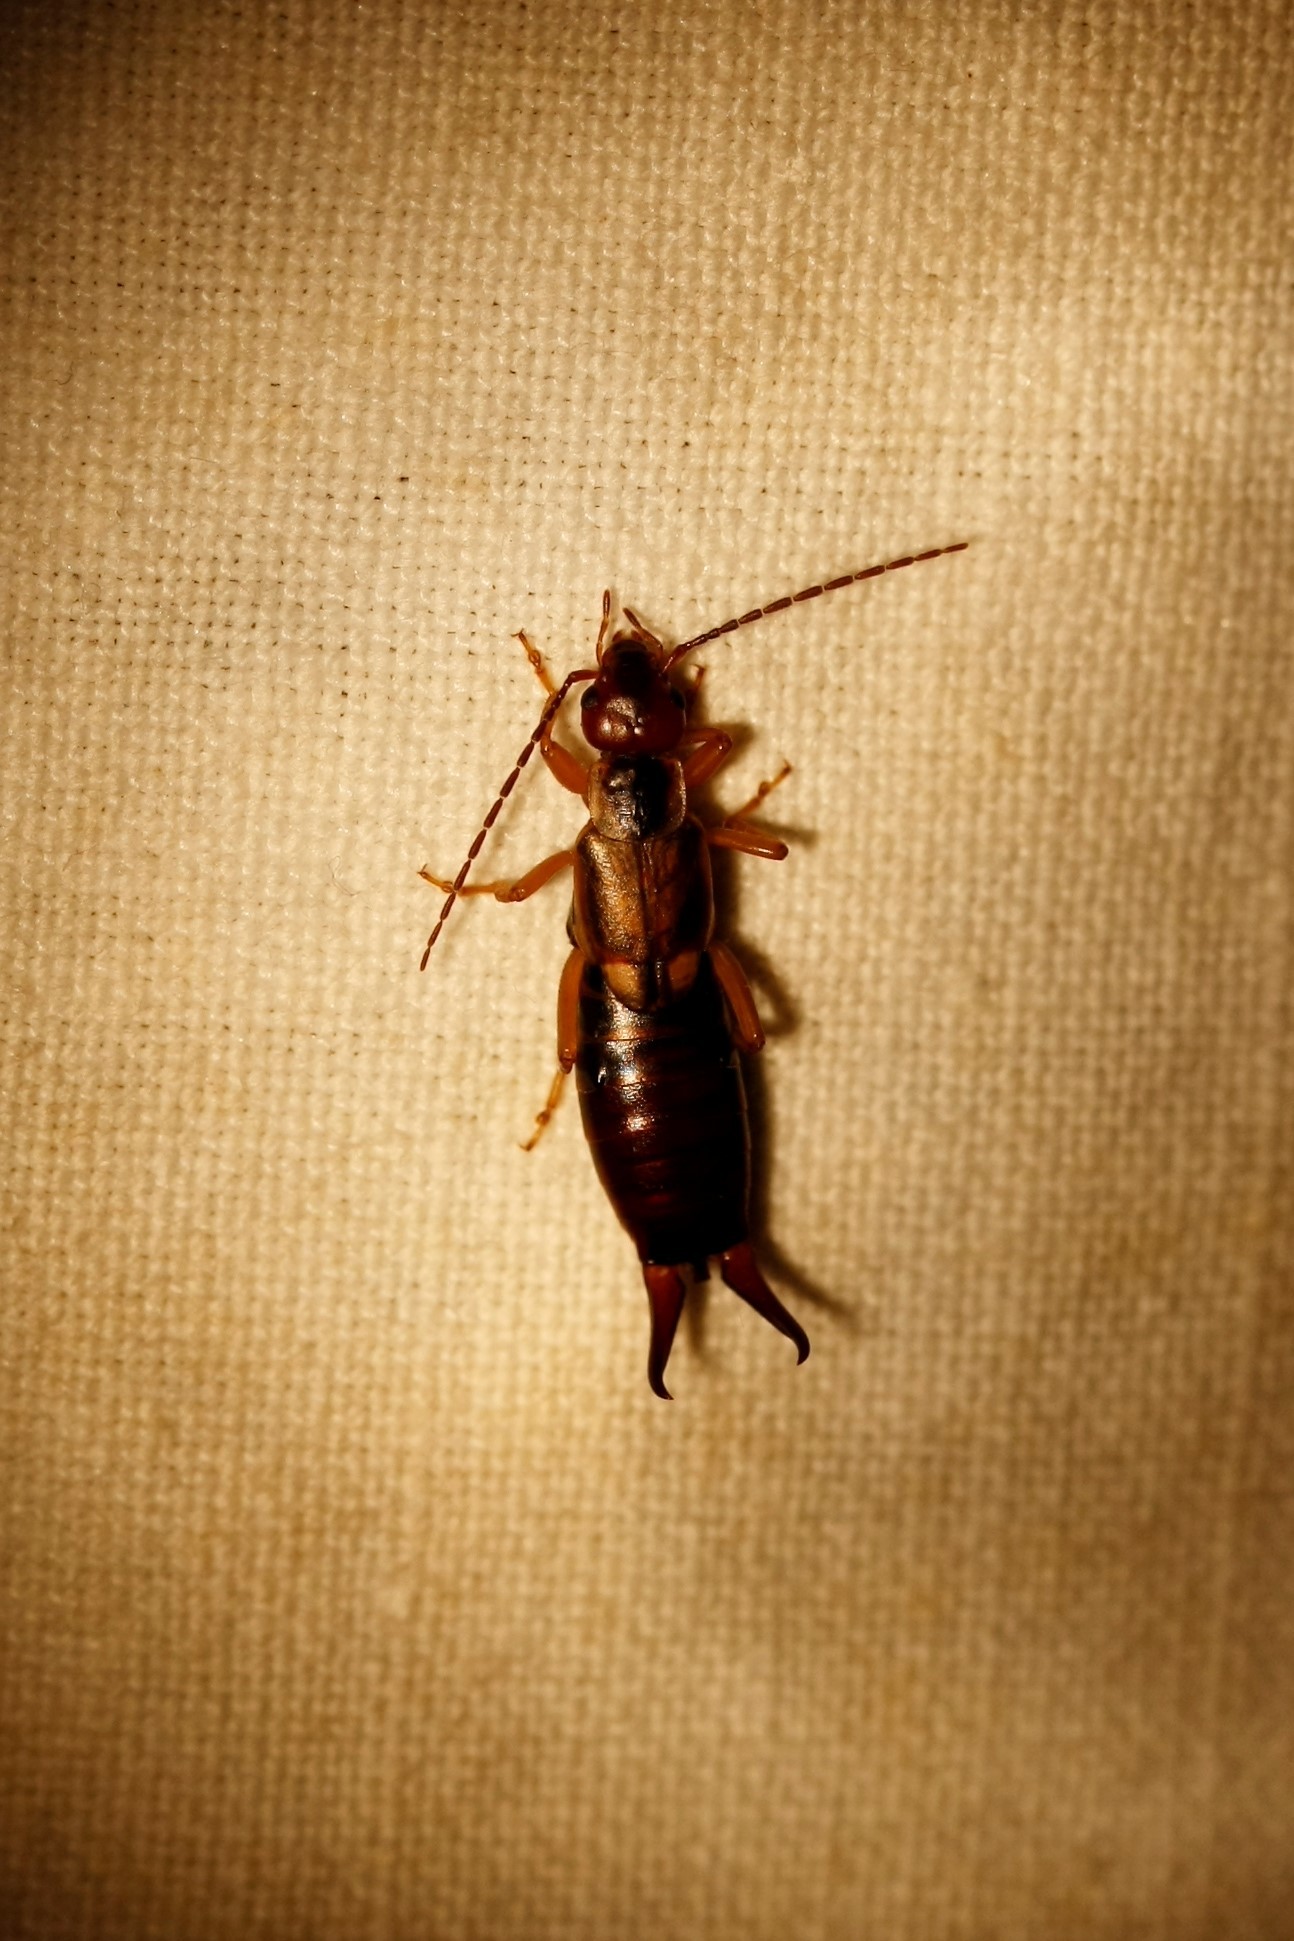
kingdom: Animalia
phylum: Arthropoda
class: Insecta
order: Dermaptera
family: Forficulidae
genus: Forficula
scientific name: Forficula
